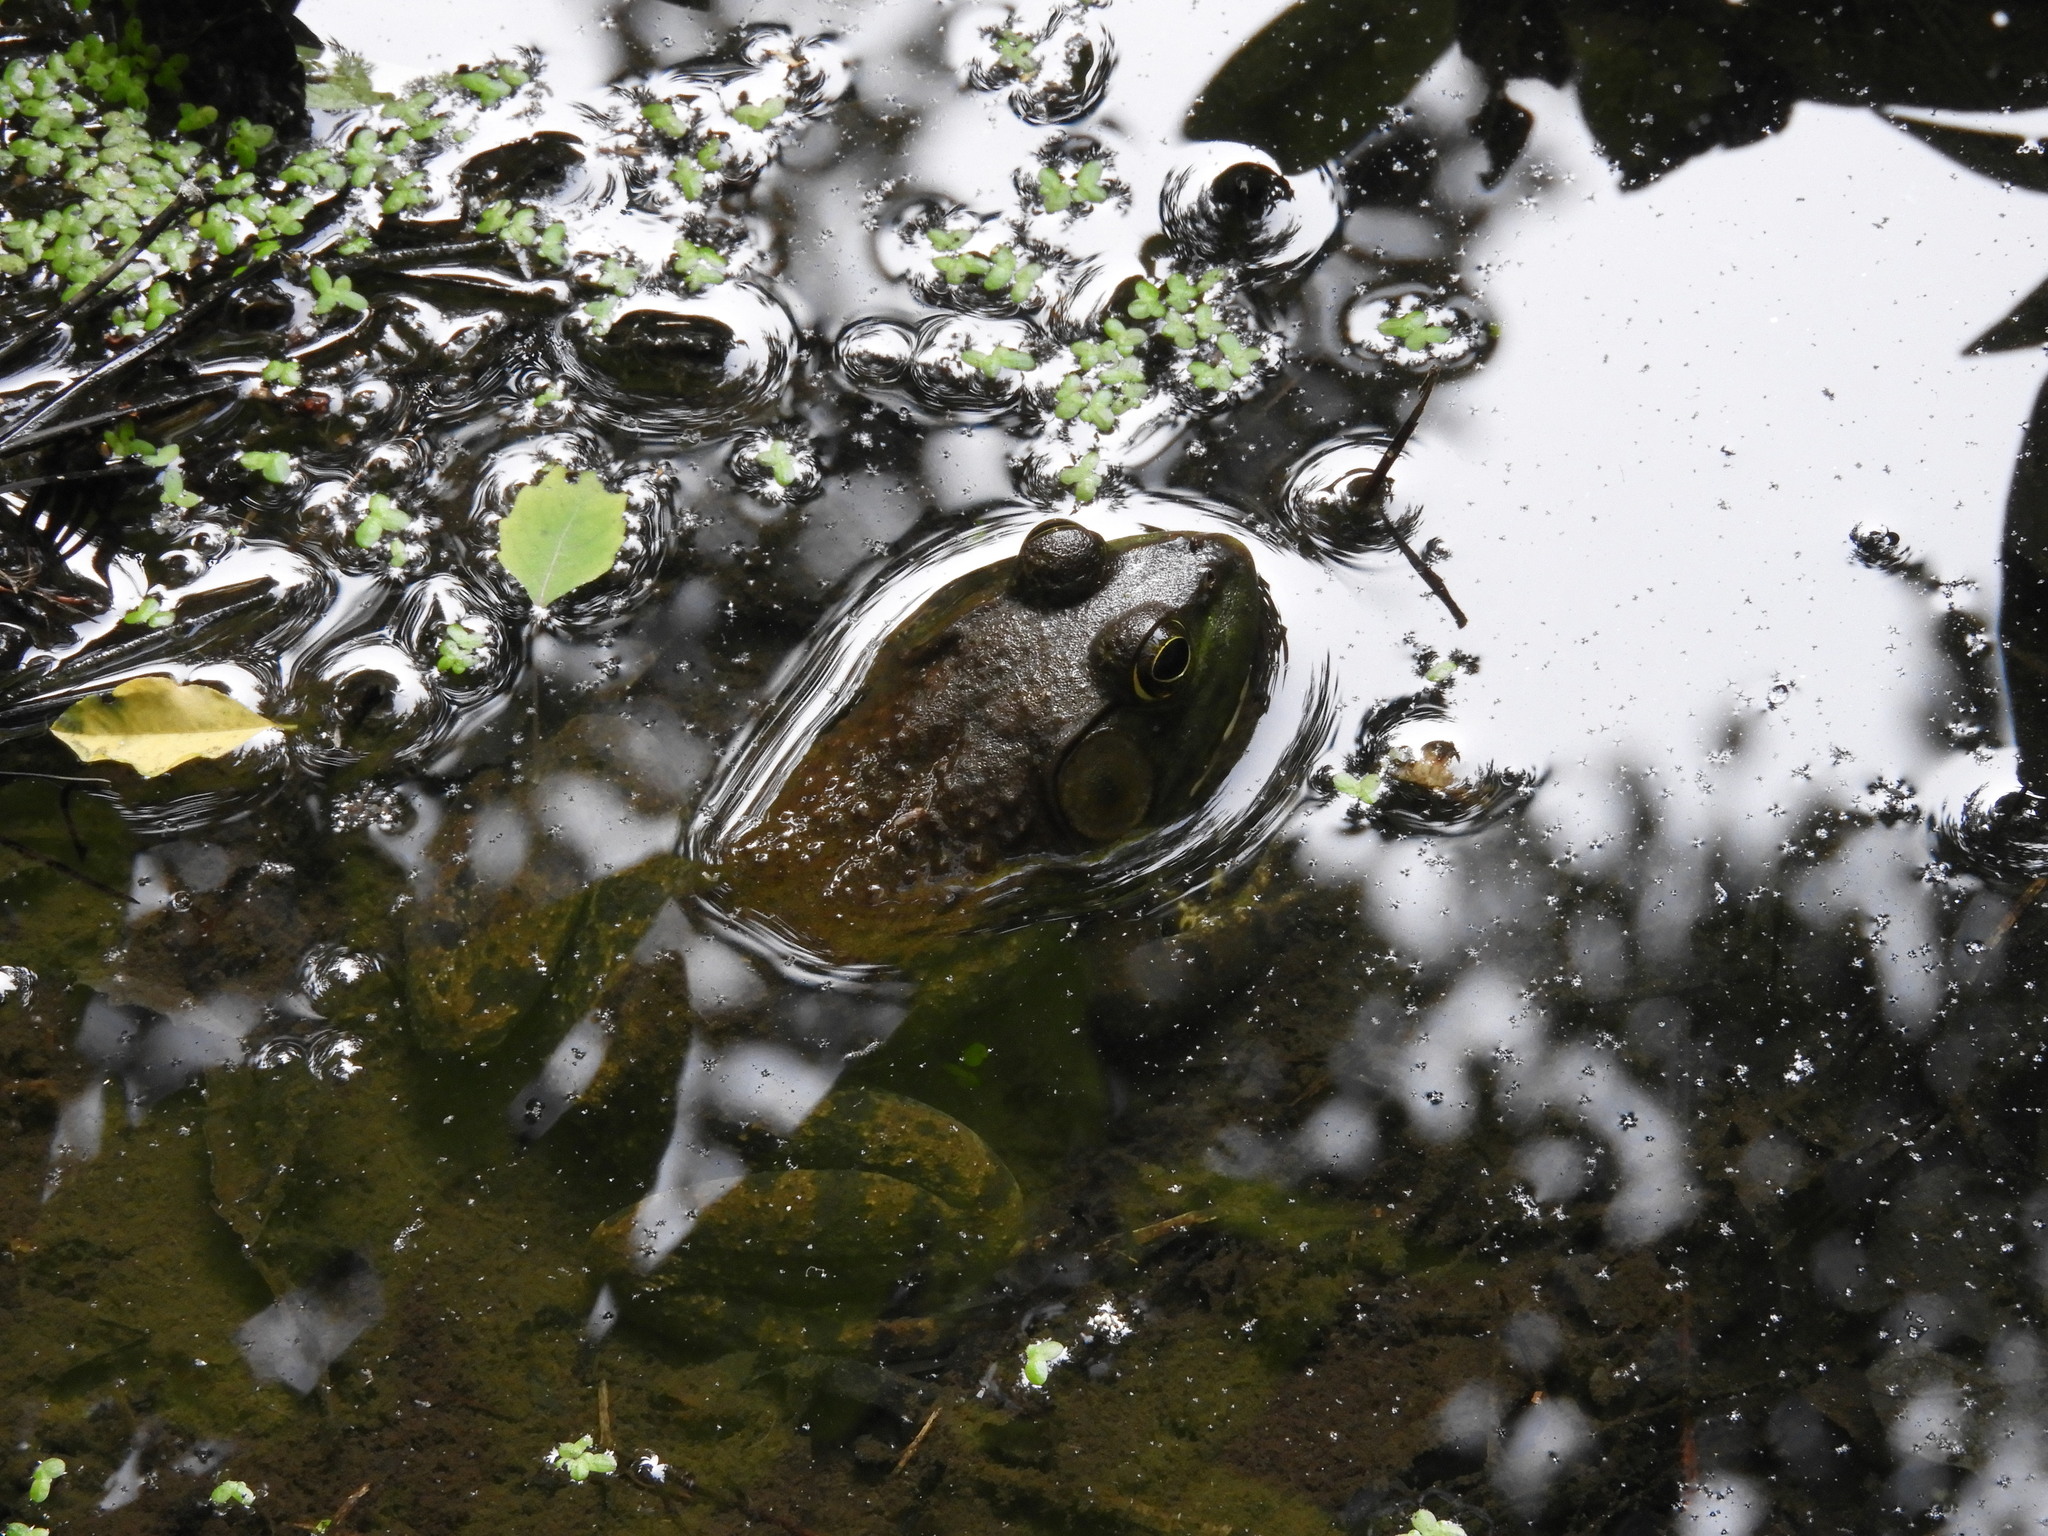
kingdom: Animalia
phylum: Chordata
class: Amphibia
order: Anura
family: Ranidae
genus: Lithobates
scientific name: Lithobates catesbeianus
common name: American bullfrog
